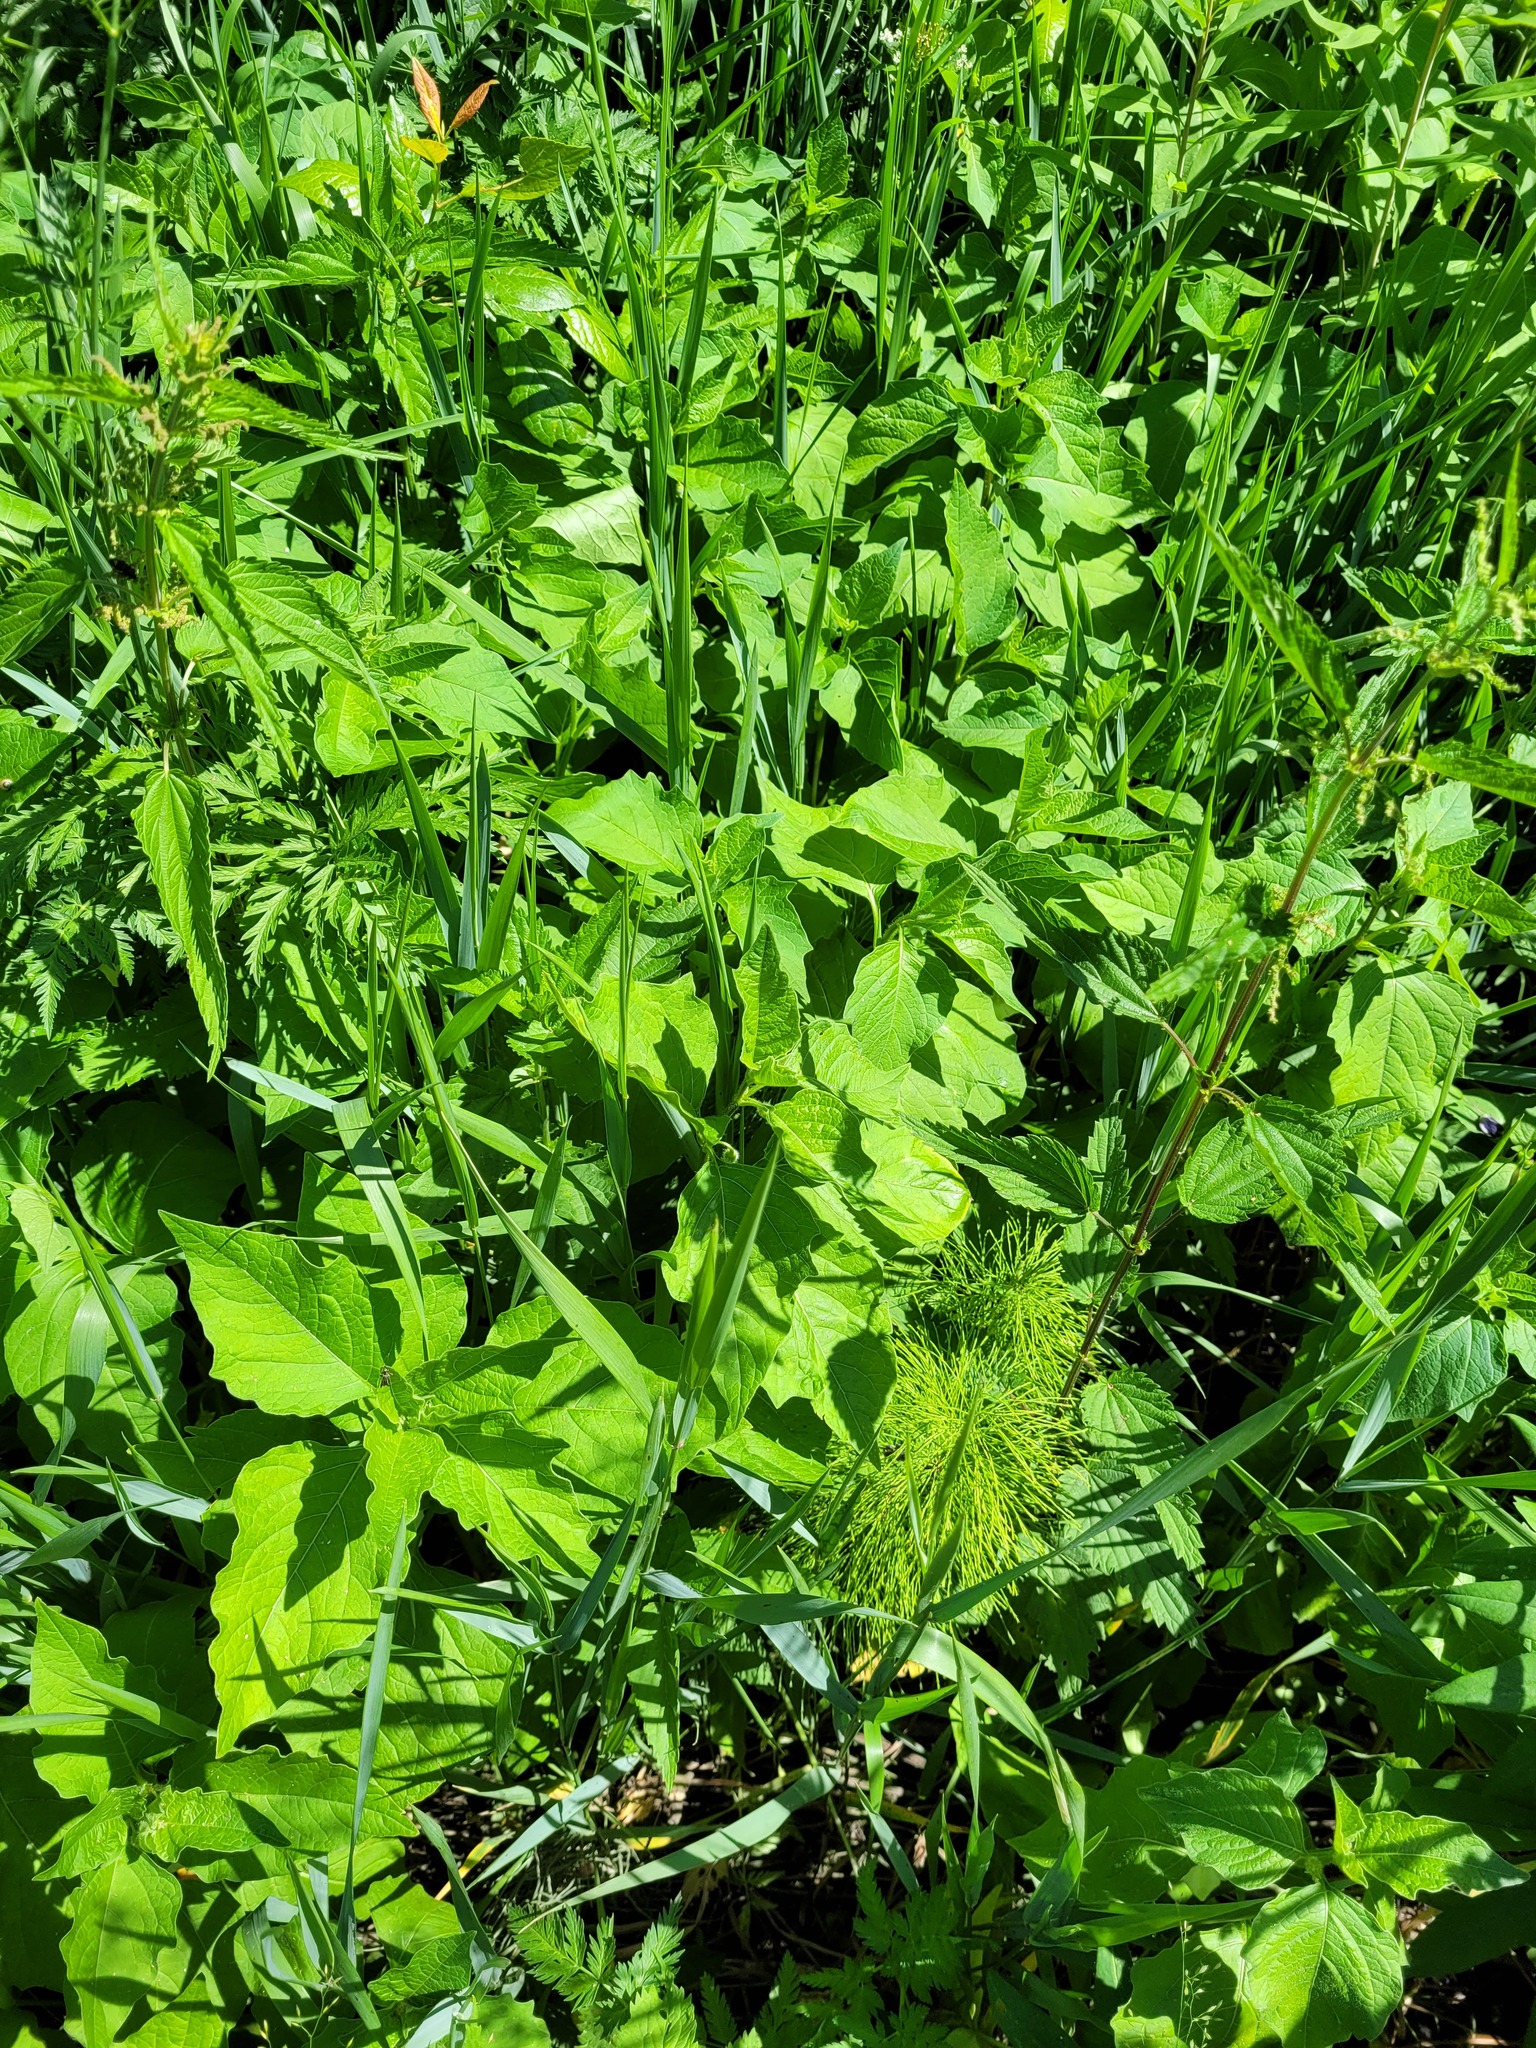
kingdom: Plantae
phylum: Tracheophyta
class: Magnoliopsida
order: Solanales
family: Solanaceae
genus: Alkekengi
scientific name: Alkekengi officinarum
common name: Japanese-lantern
